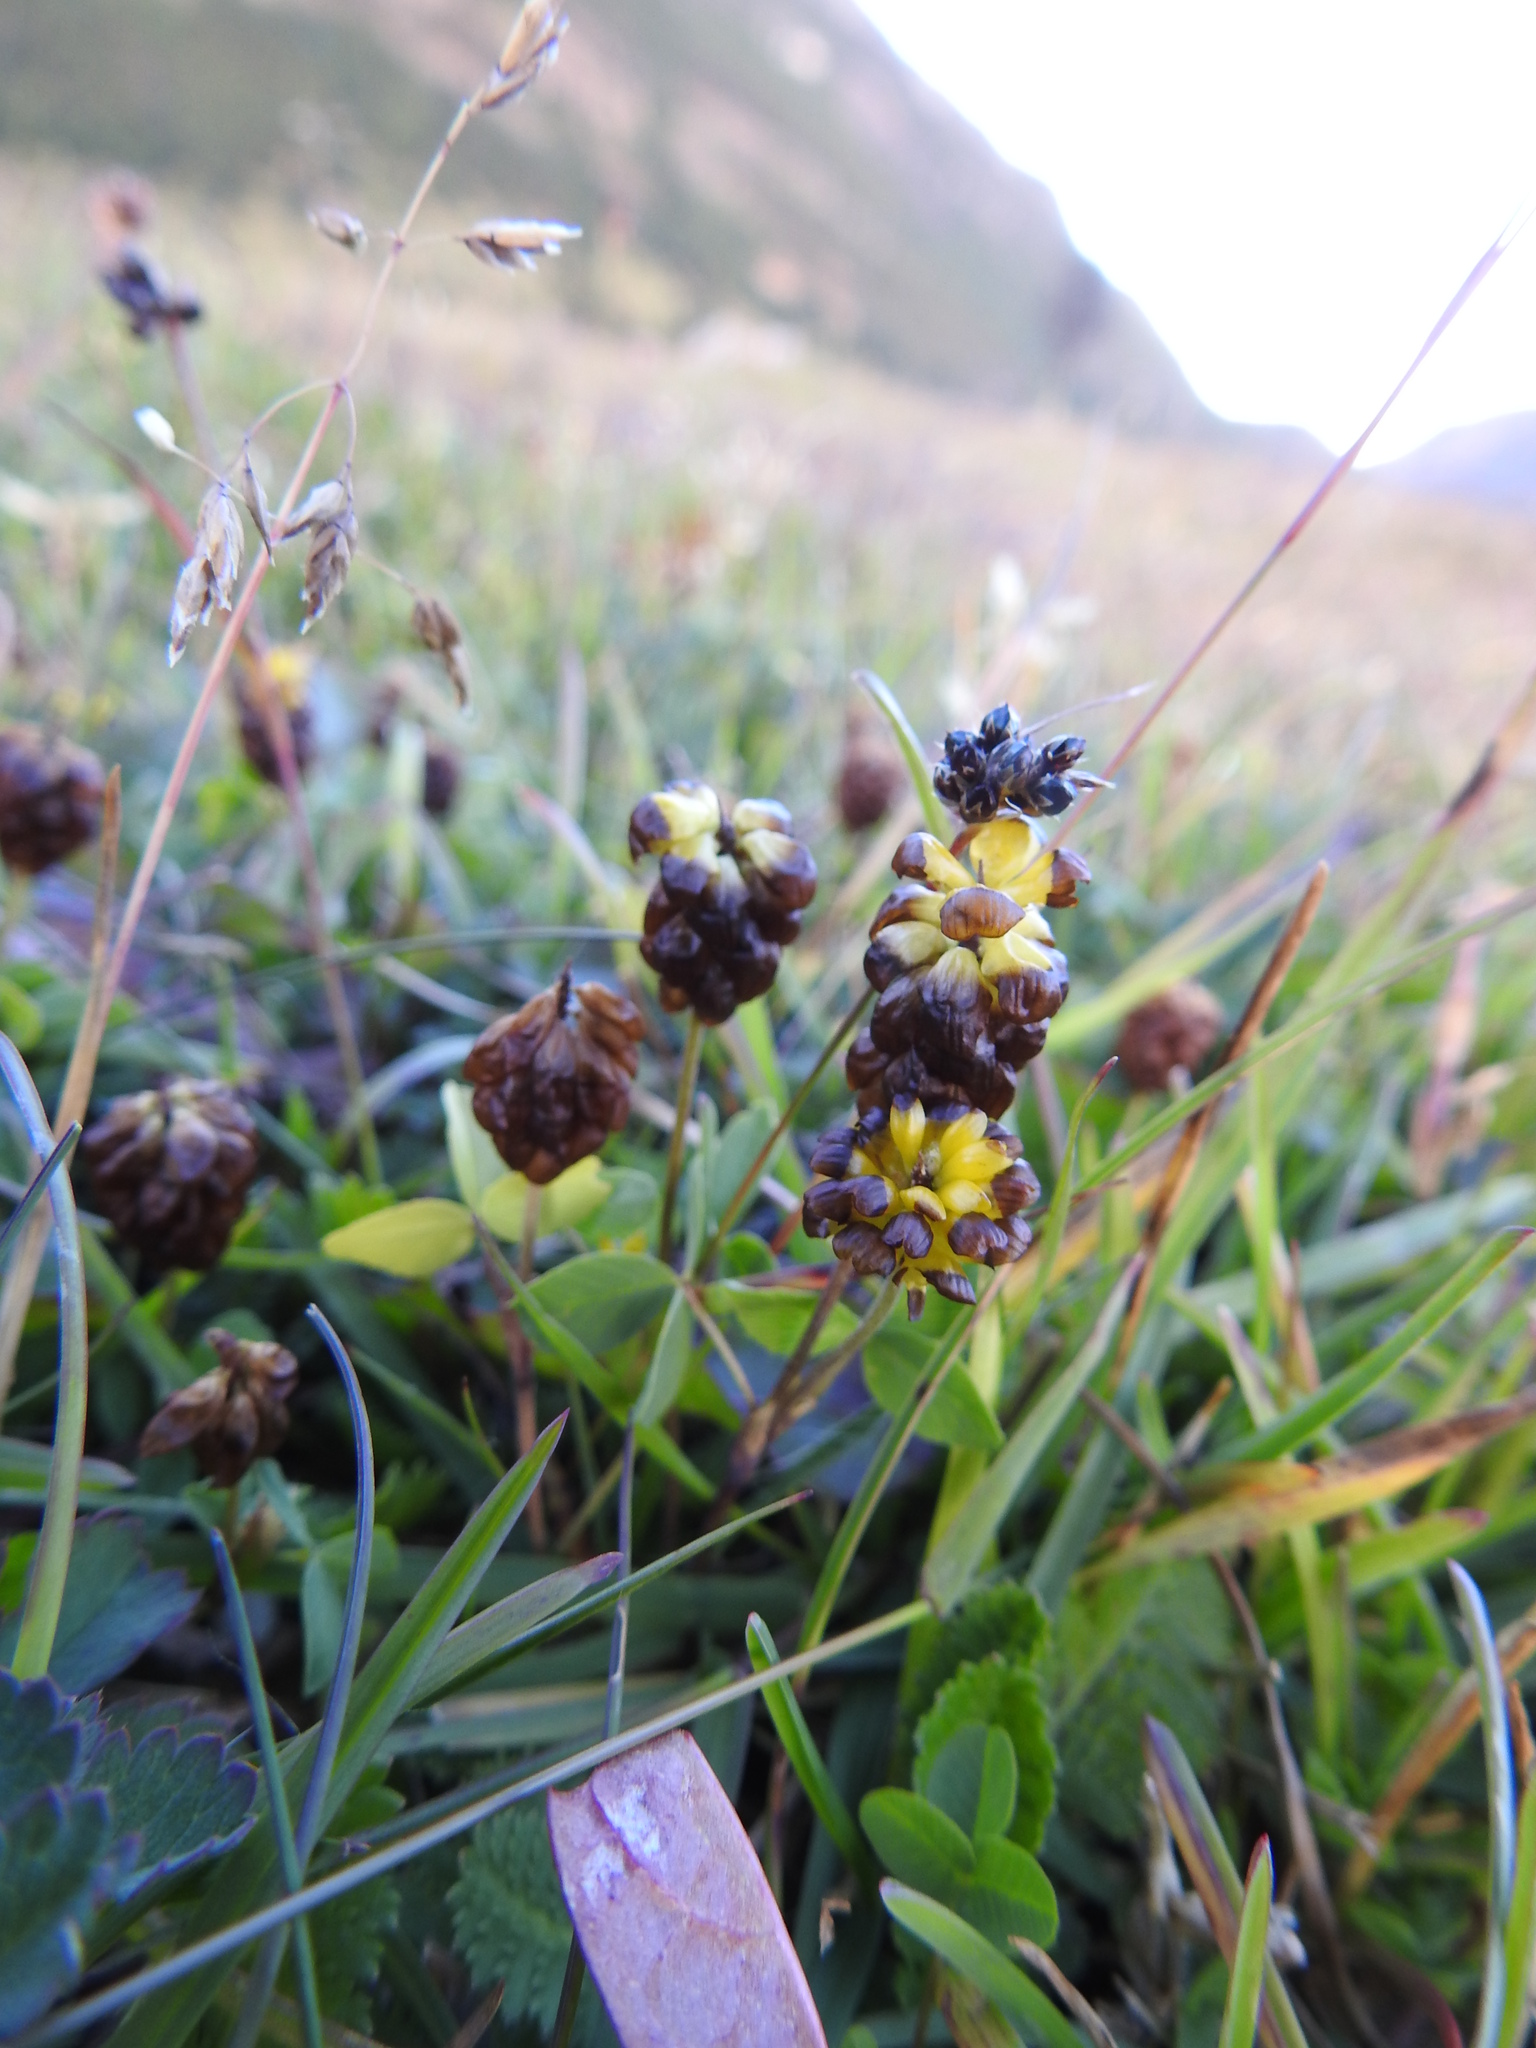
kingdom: Plantae
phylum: Tracheophyta
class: Magnoliopsida
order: Fabales
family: Fabaceae
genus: Trifolium
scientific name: Trifolium spadiceum
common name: Brown moor clover
